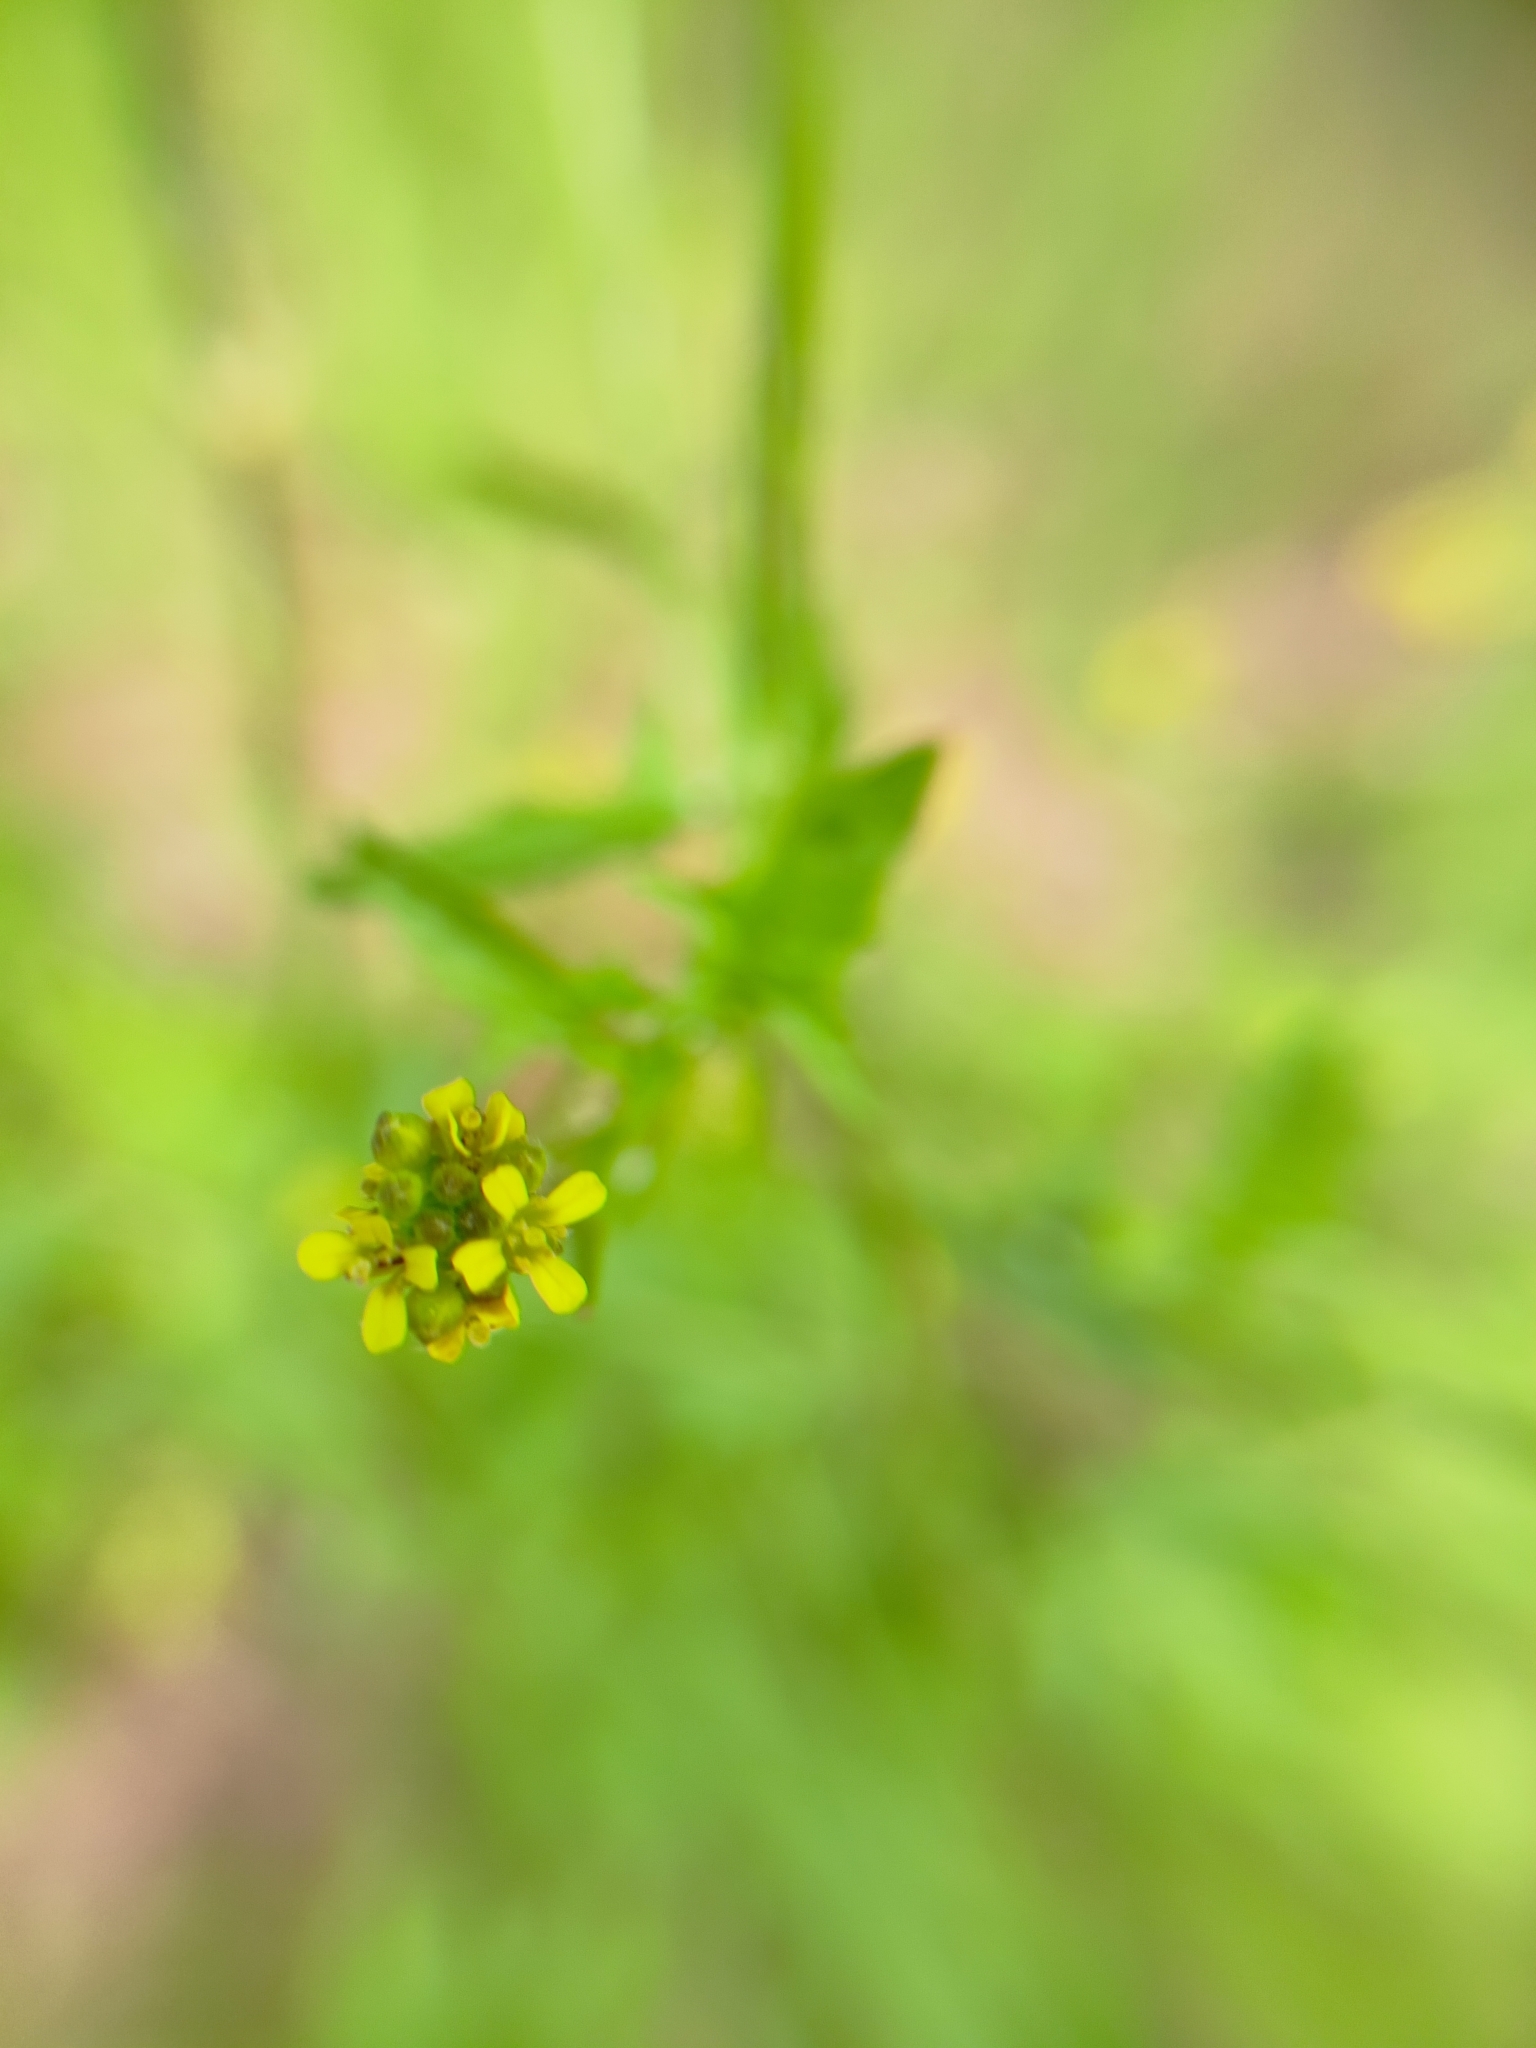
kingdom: Plantae
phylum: Tracheophyta
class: Magnoliopsida
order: Brassicales
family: Brassicaceae
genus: Sisymbrium
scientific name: Sisymbrium officinale
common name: Hedge mustard
